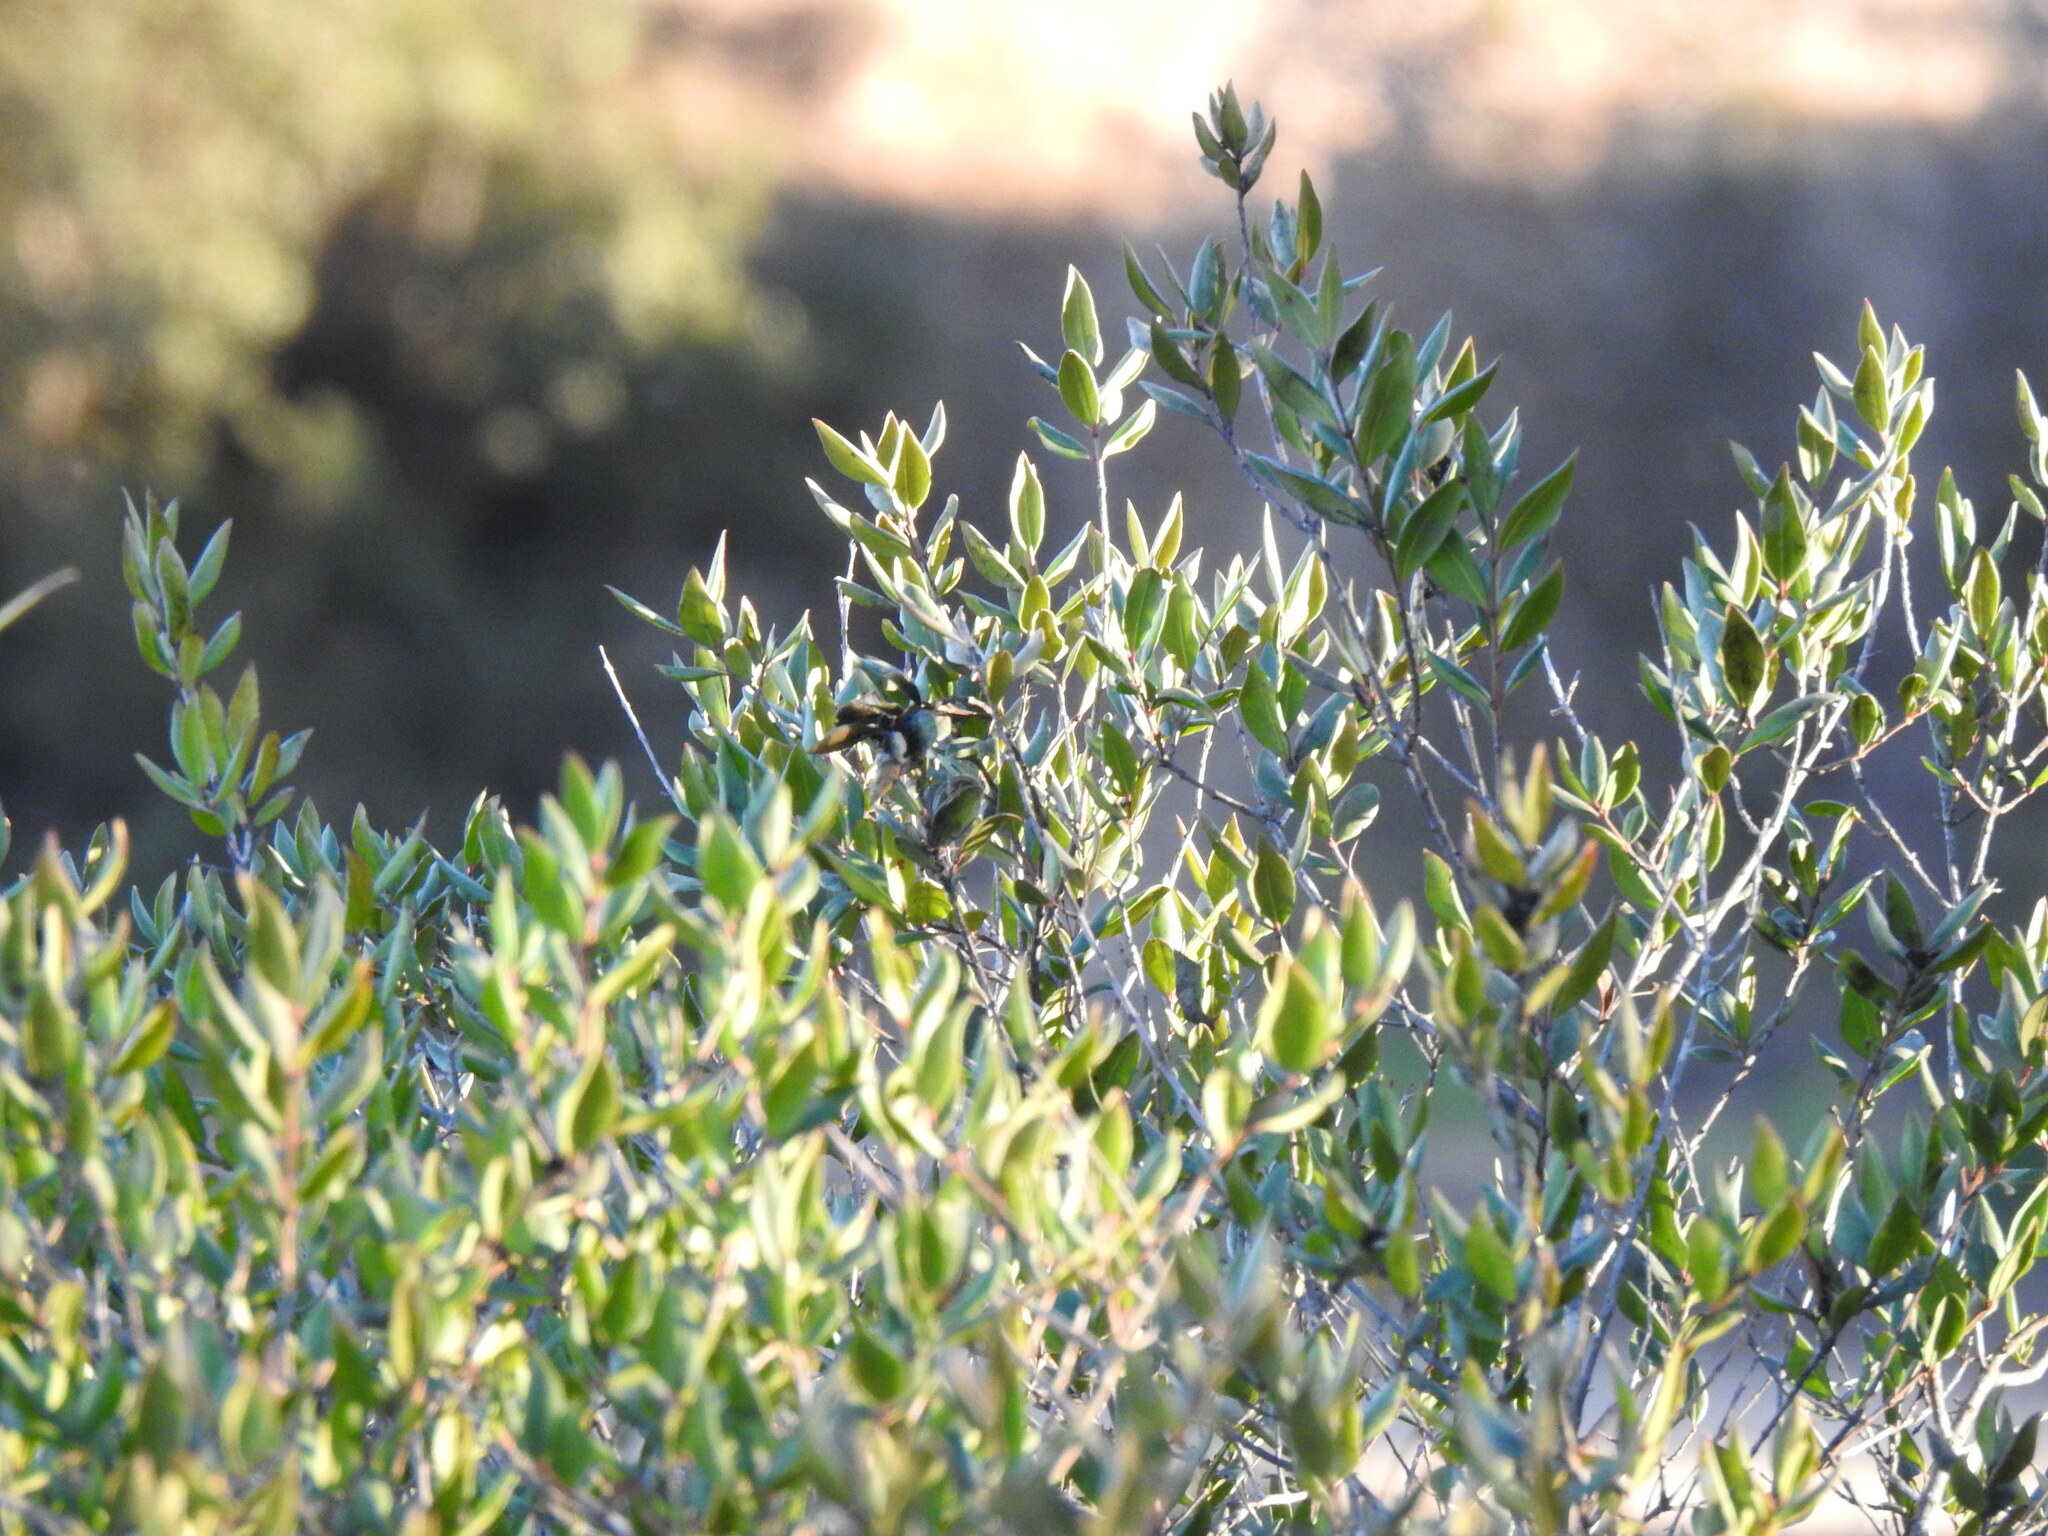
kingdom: Plantae
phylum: Tracheophyta
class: Magnoliopsida
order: Myrtales
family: Myrtaceae
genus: Myrtus
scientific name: Myrtus communis
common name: Myrtle
